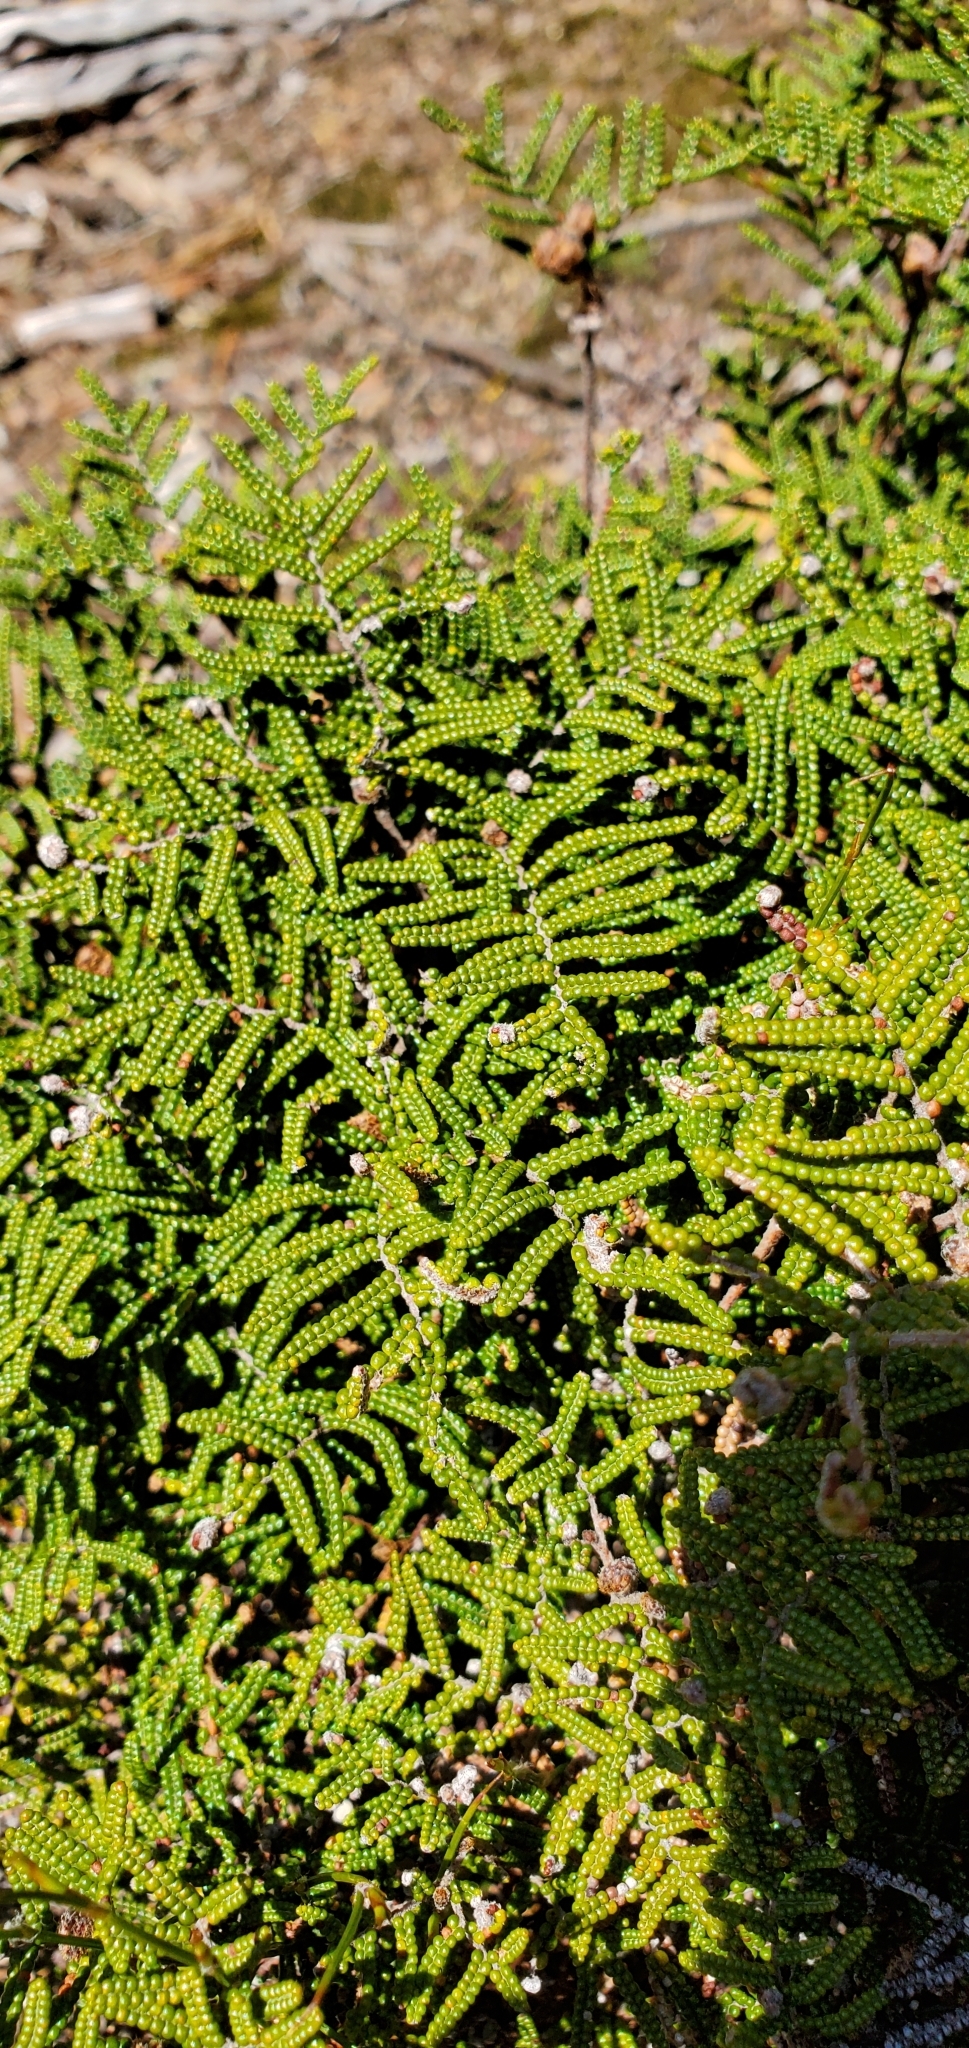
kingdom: Plantae
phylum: Tracheophyta
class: Polypodiopsida
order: Gleicheniales
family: Gleicheniaceae
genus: Gleichenia
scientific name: Gleichenia alpina
